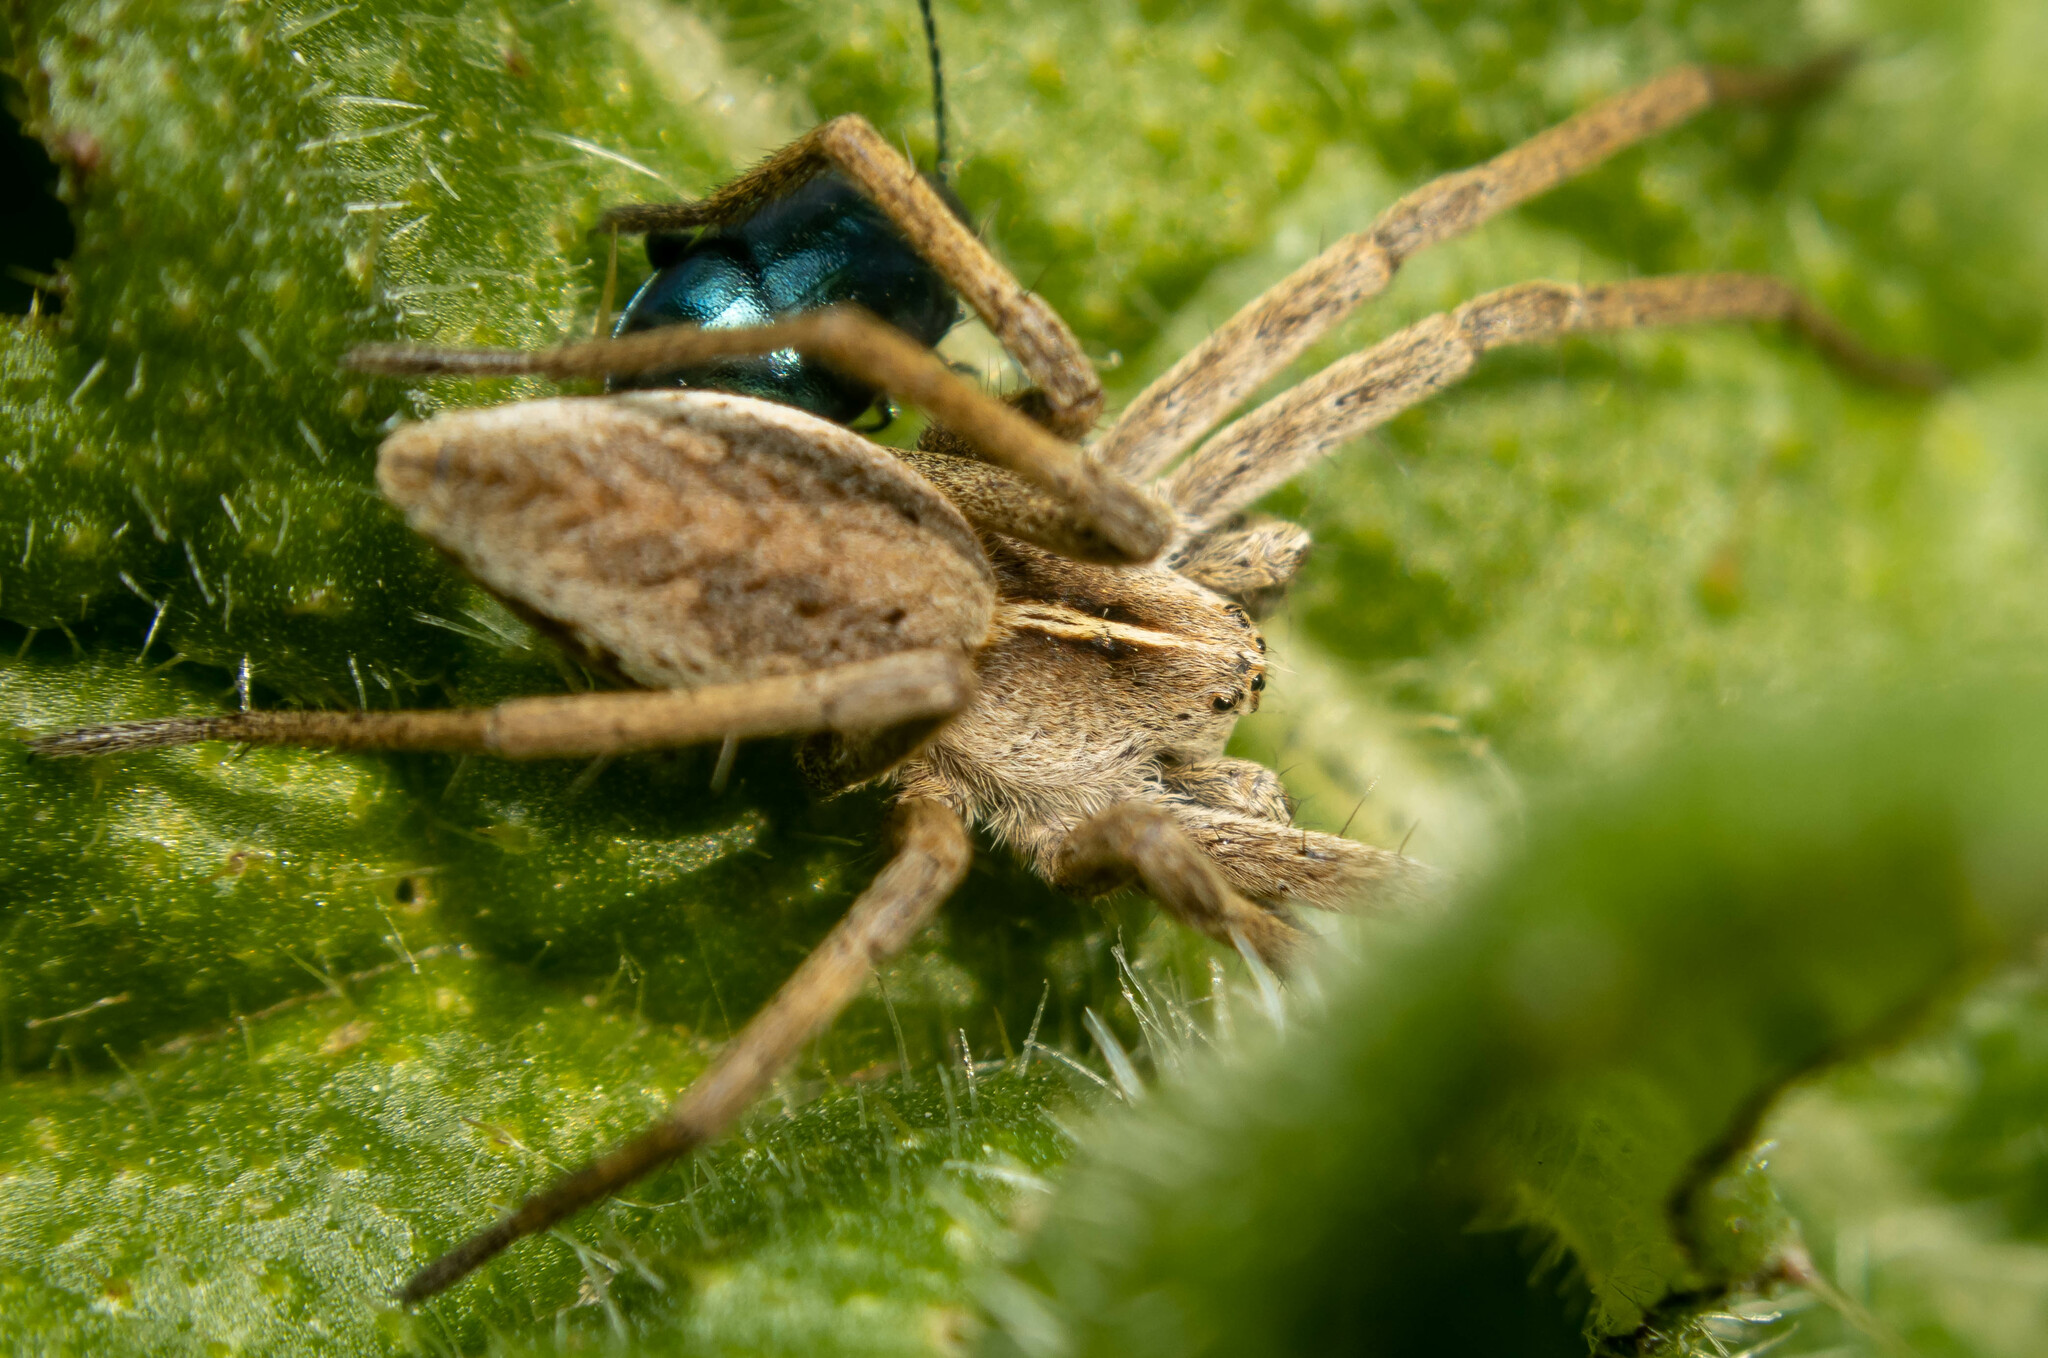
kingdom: Animalia
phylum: Arthropoda
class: Arachnida
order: Araneae
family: Pisauridae
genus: Pisaura
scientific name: Pisaura mirabilis
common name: Tent spider
